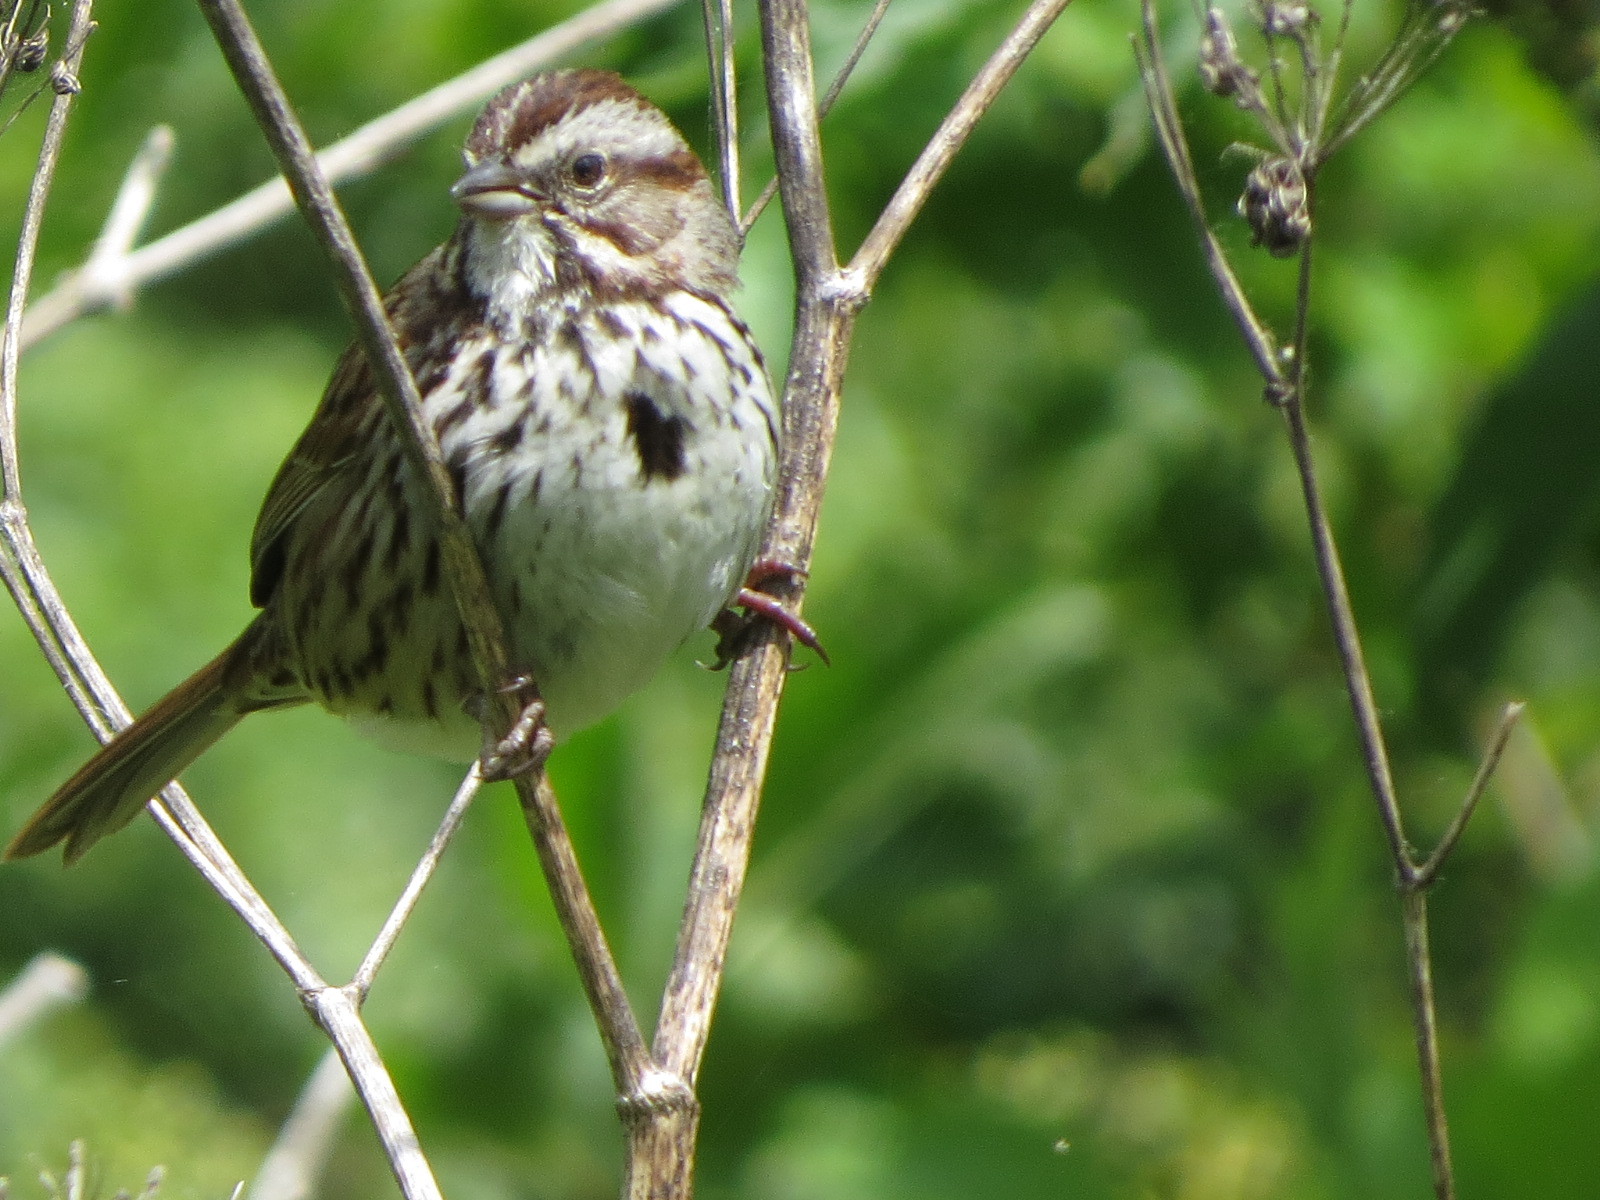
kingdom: Animalia
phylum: Chordata
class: Aves
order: Passeriformes
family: Passerellidae
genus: Melospiza
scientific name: Melospiza melodia
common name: Song sparrow
